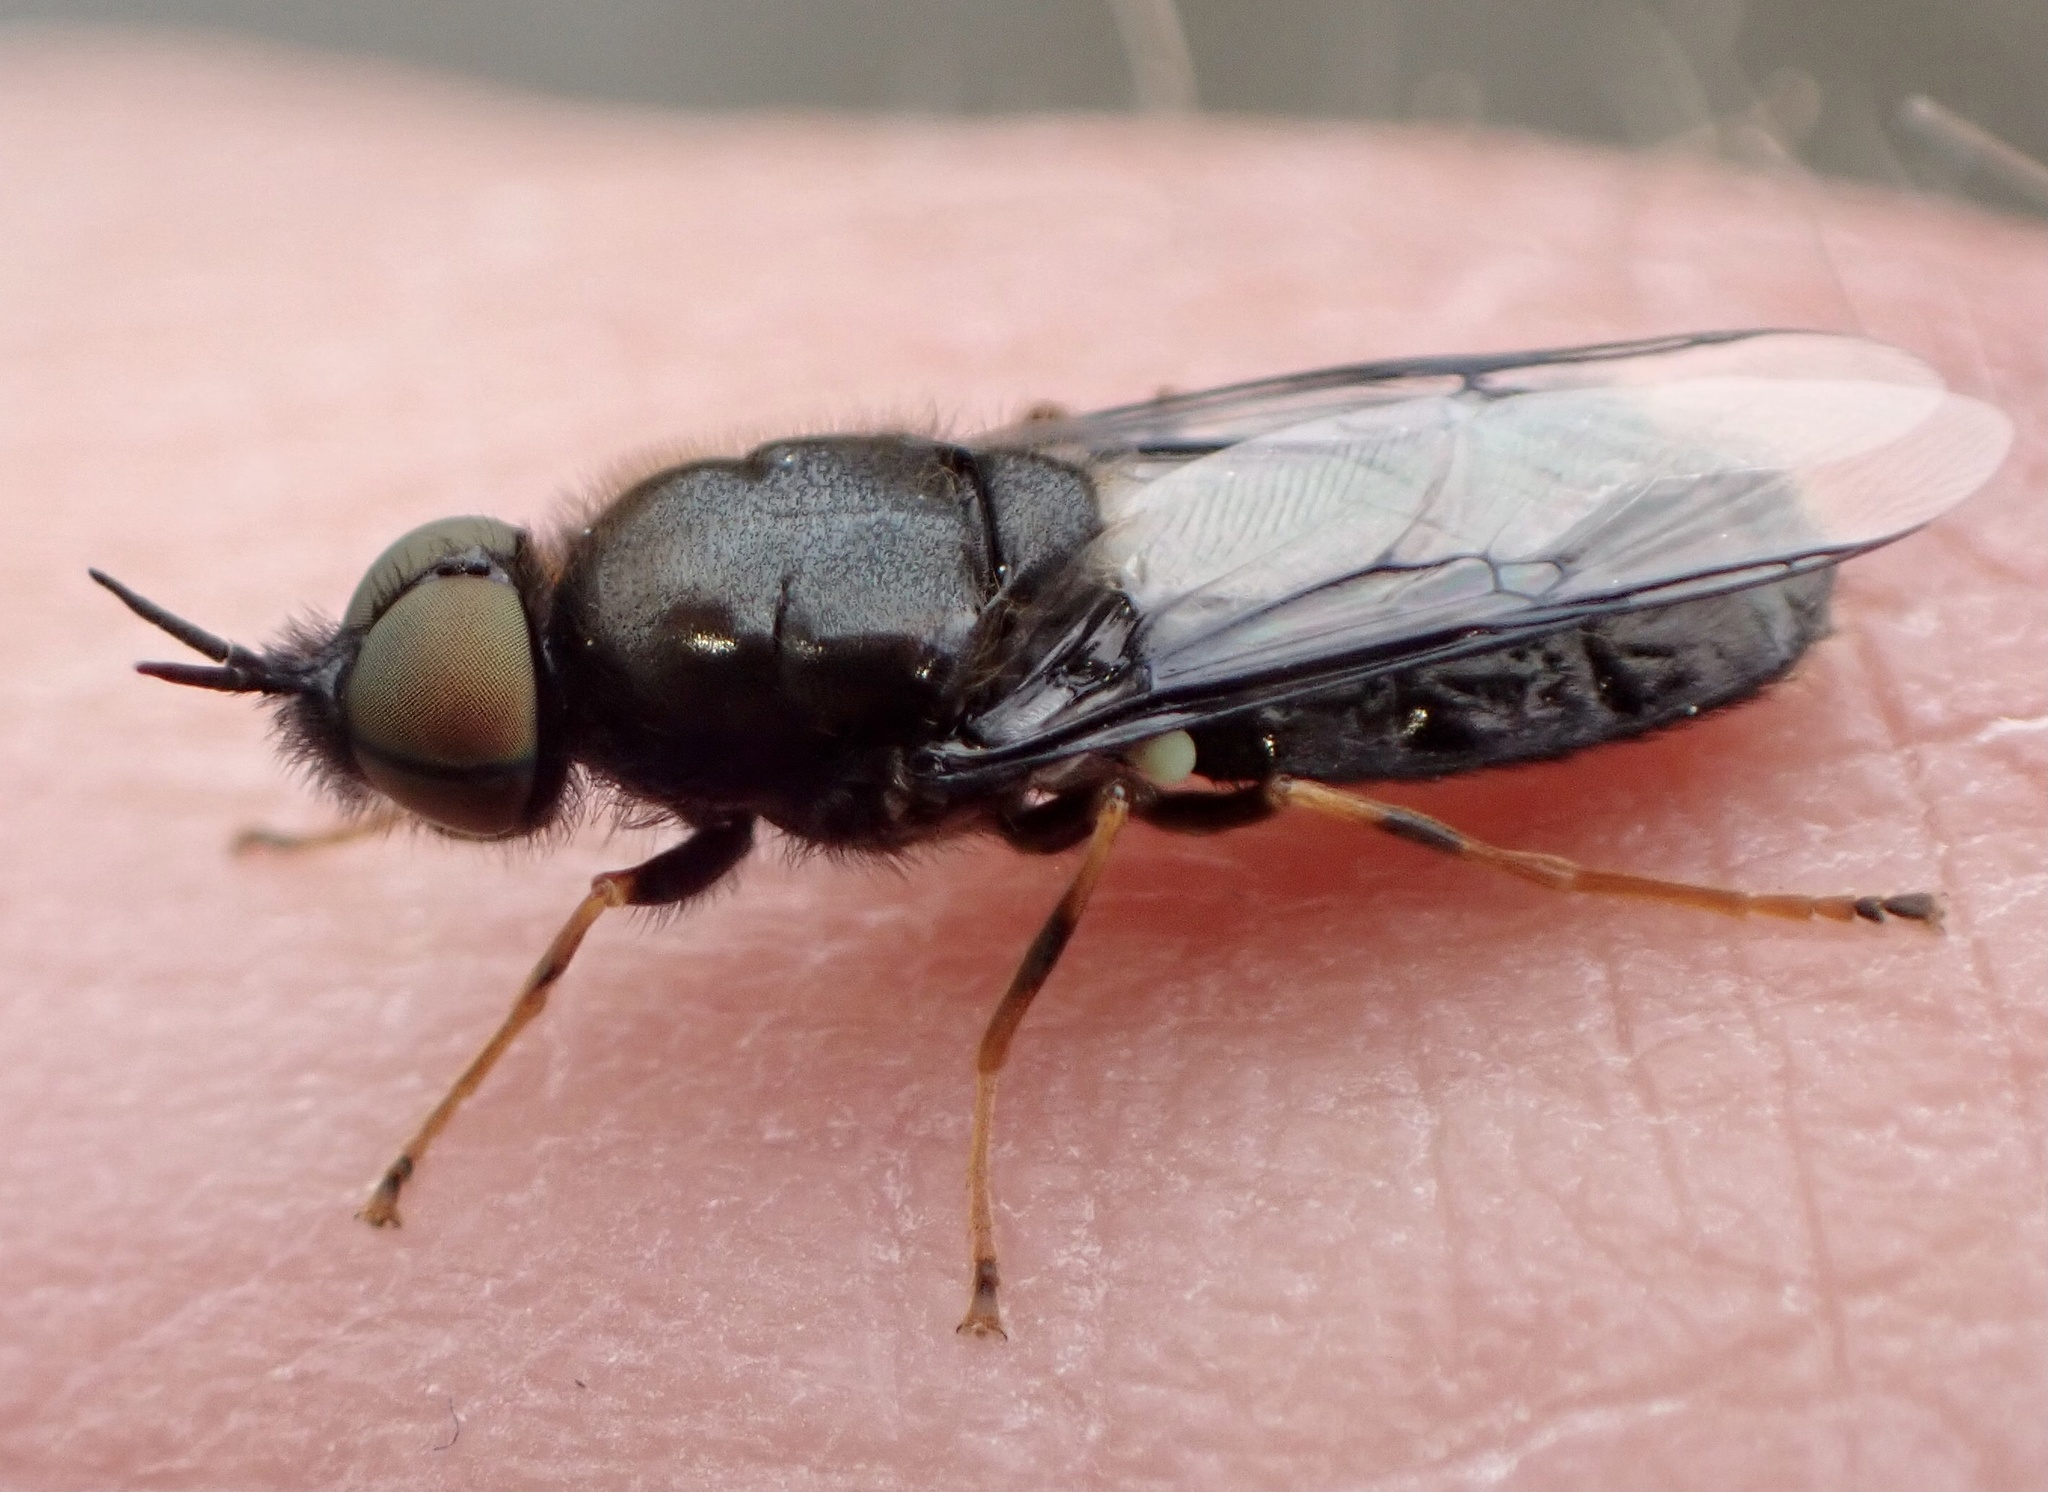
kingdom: Animalia
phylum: Arthropoda
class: Insecta
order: Diptera
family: Stratiomyidae
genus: Odontomyia
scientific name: Odontomyia tigrina
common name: Black colonel
